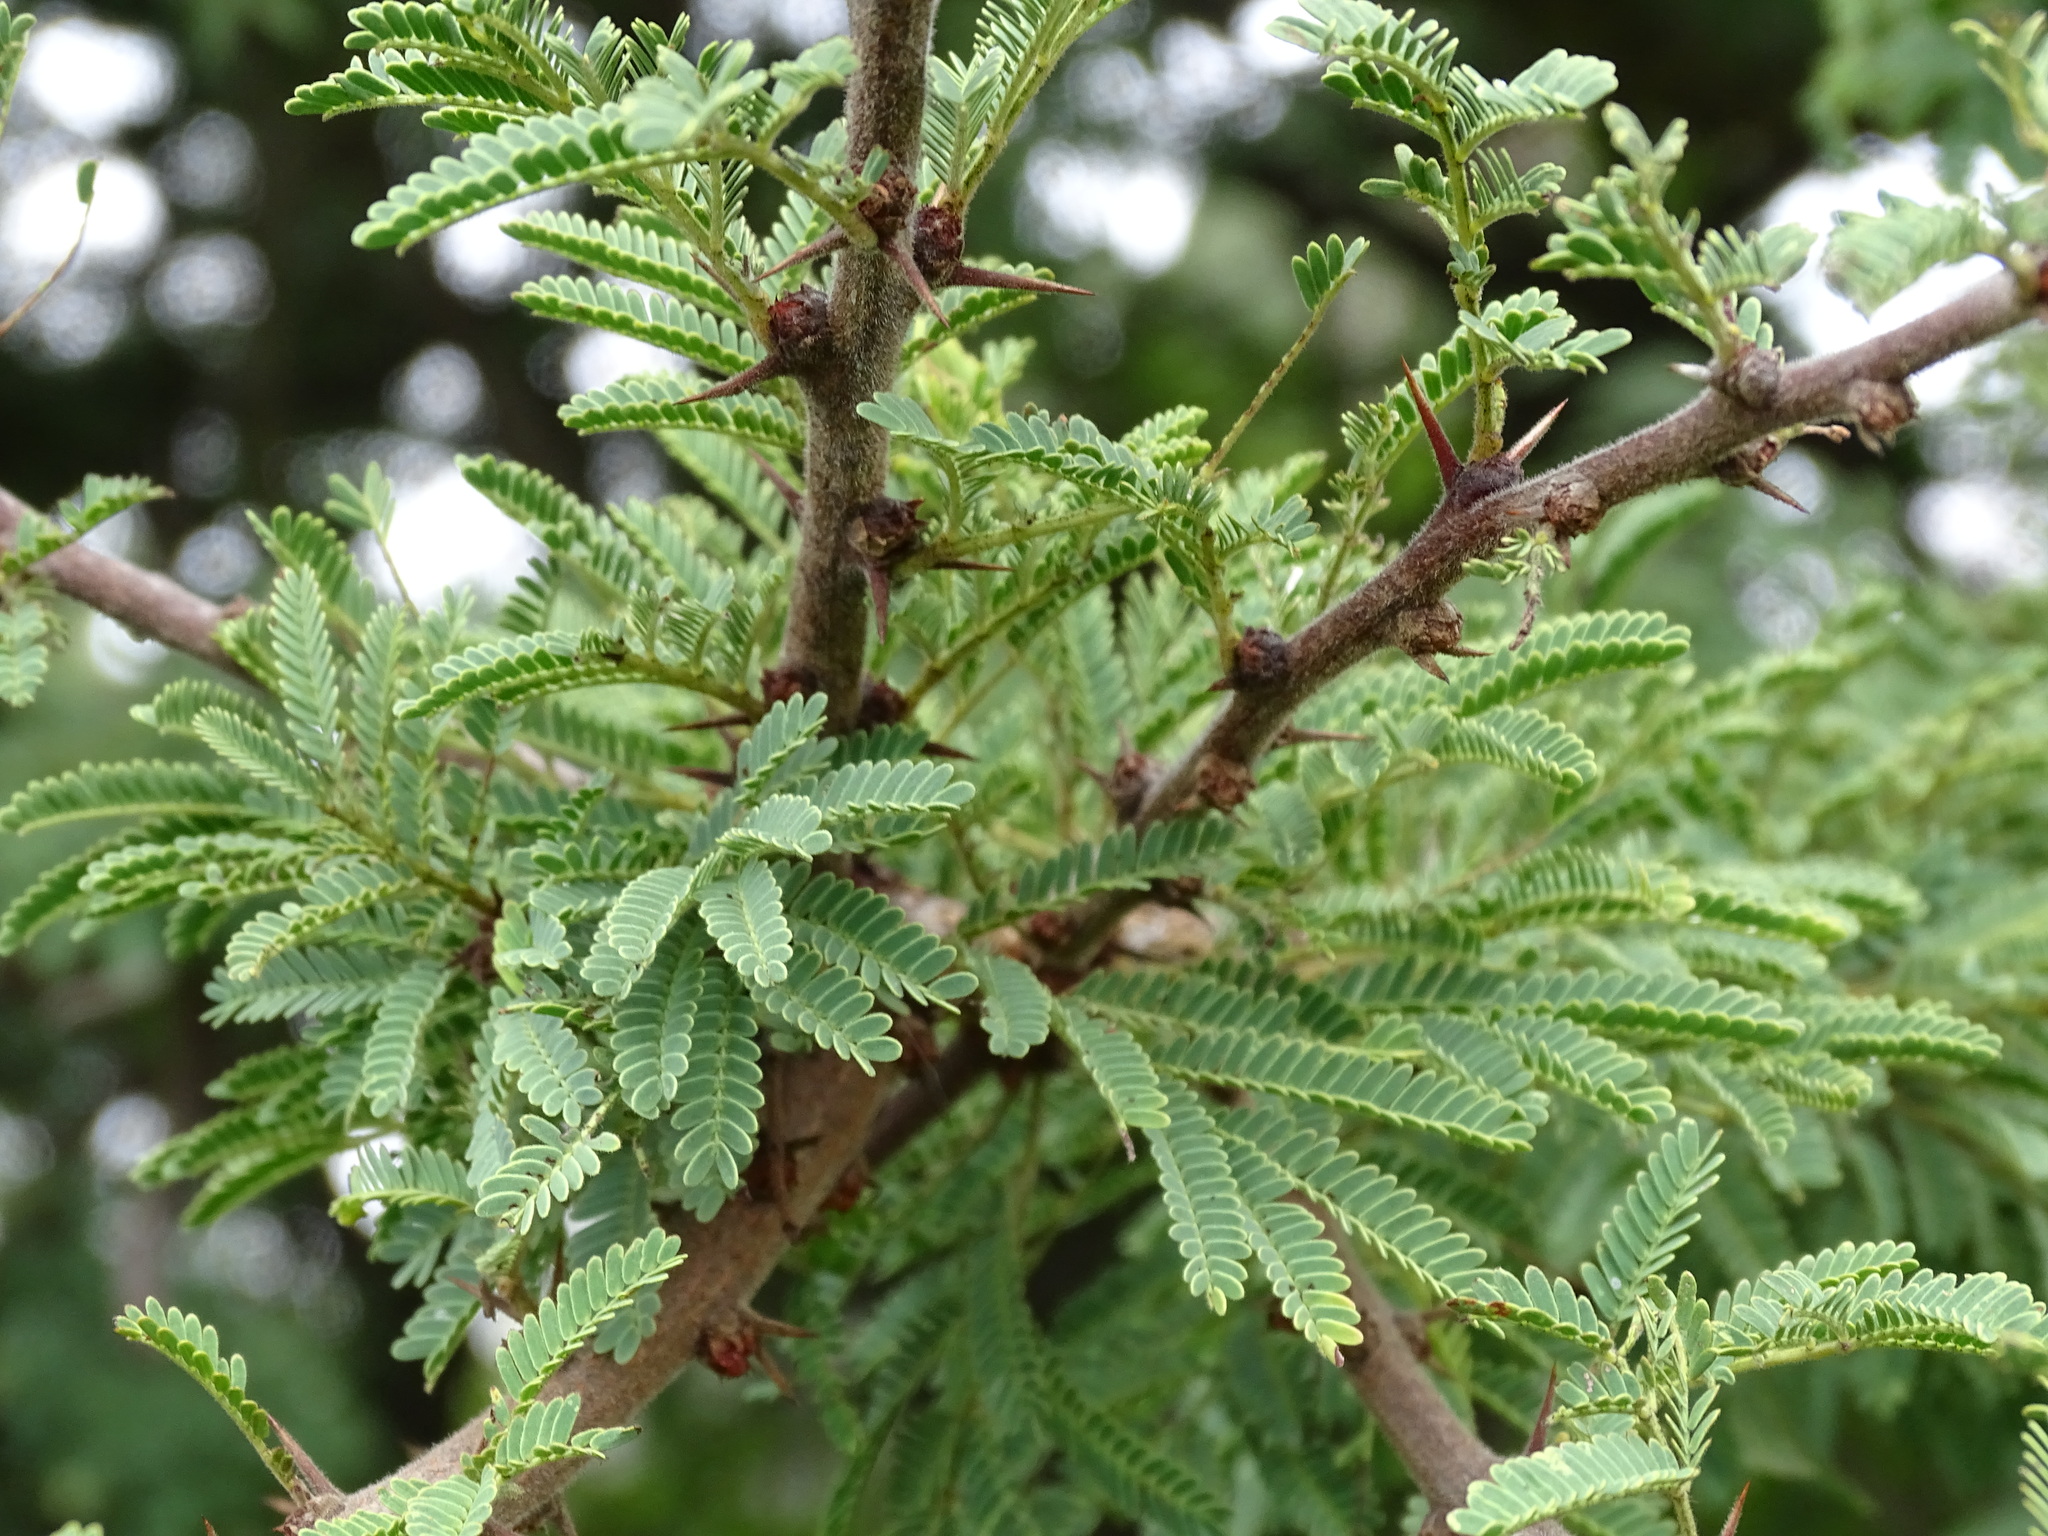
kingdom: Plantae
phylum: Tracheophyta
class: Magnoliopsida
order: Fabales
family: Fabaceae
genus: Vachellia
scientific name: Vachellia schaffneri
